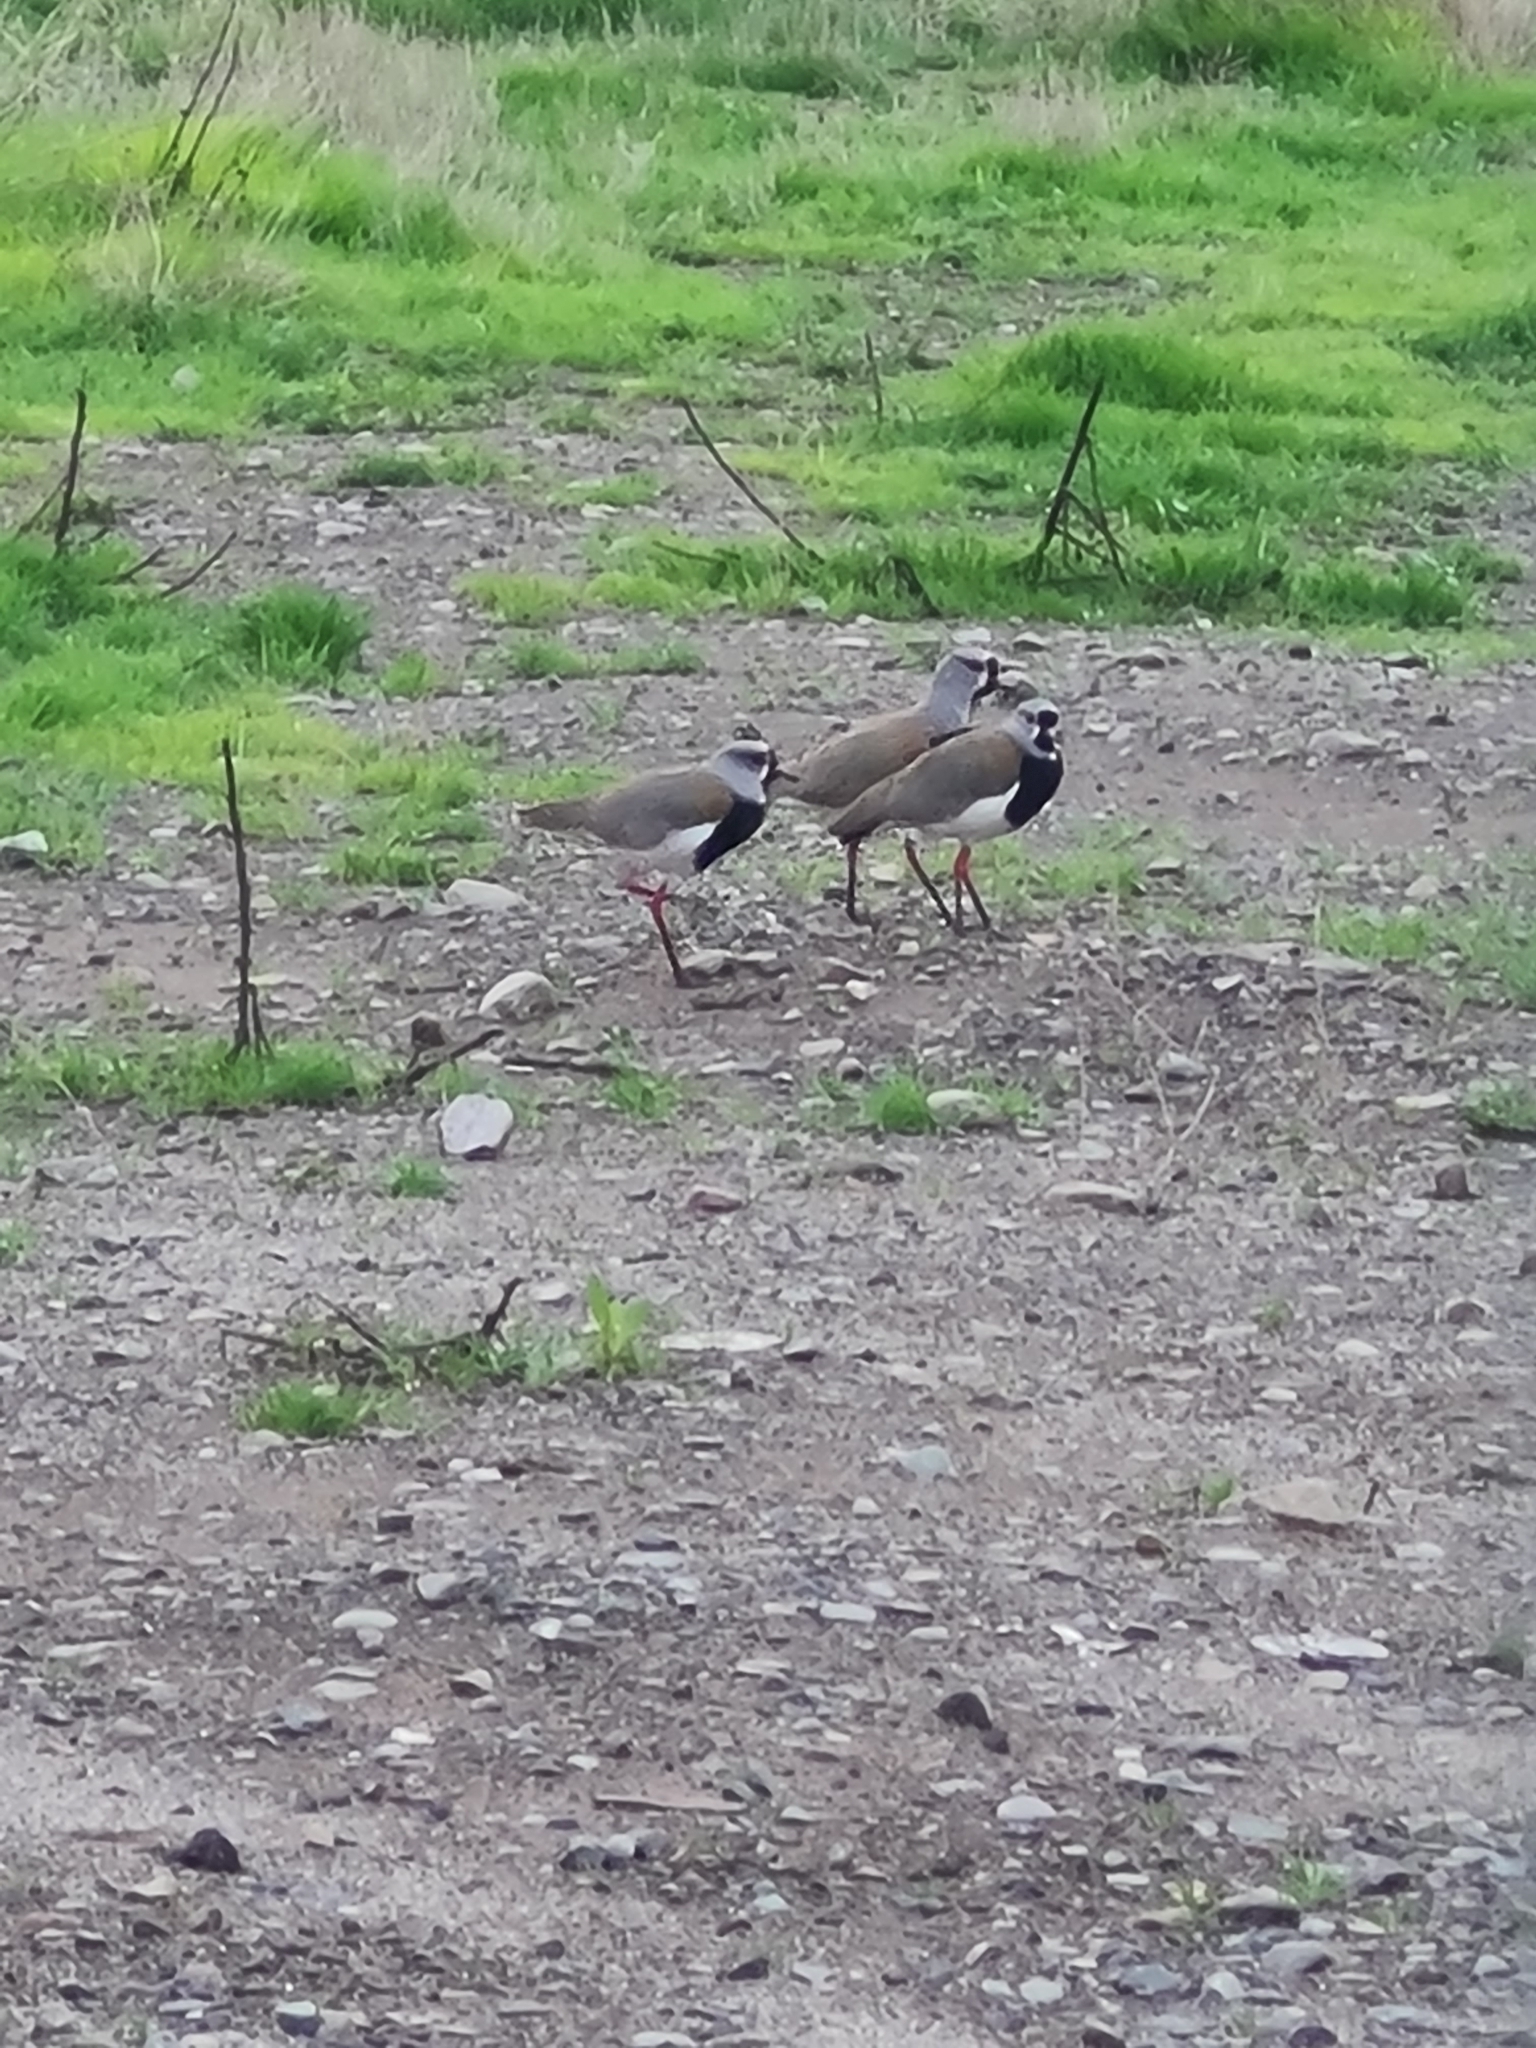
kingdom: Animalia
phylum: Chordata
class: Aves
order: Charadriiformes
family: Charadriidae
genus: Vanellus
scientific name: Vanellus chilensis
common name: Southern lapwing
